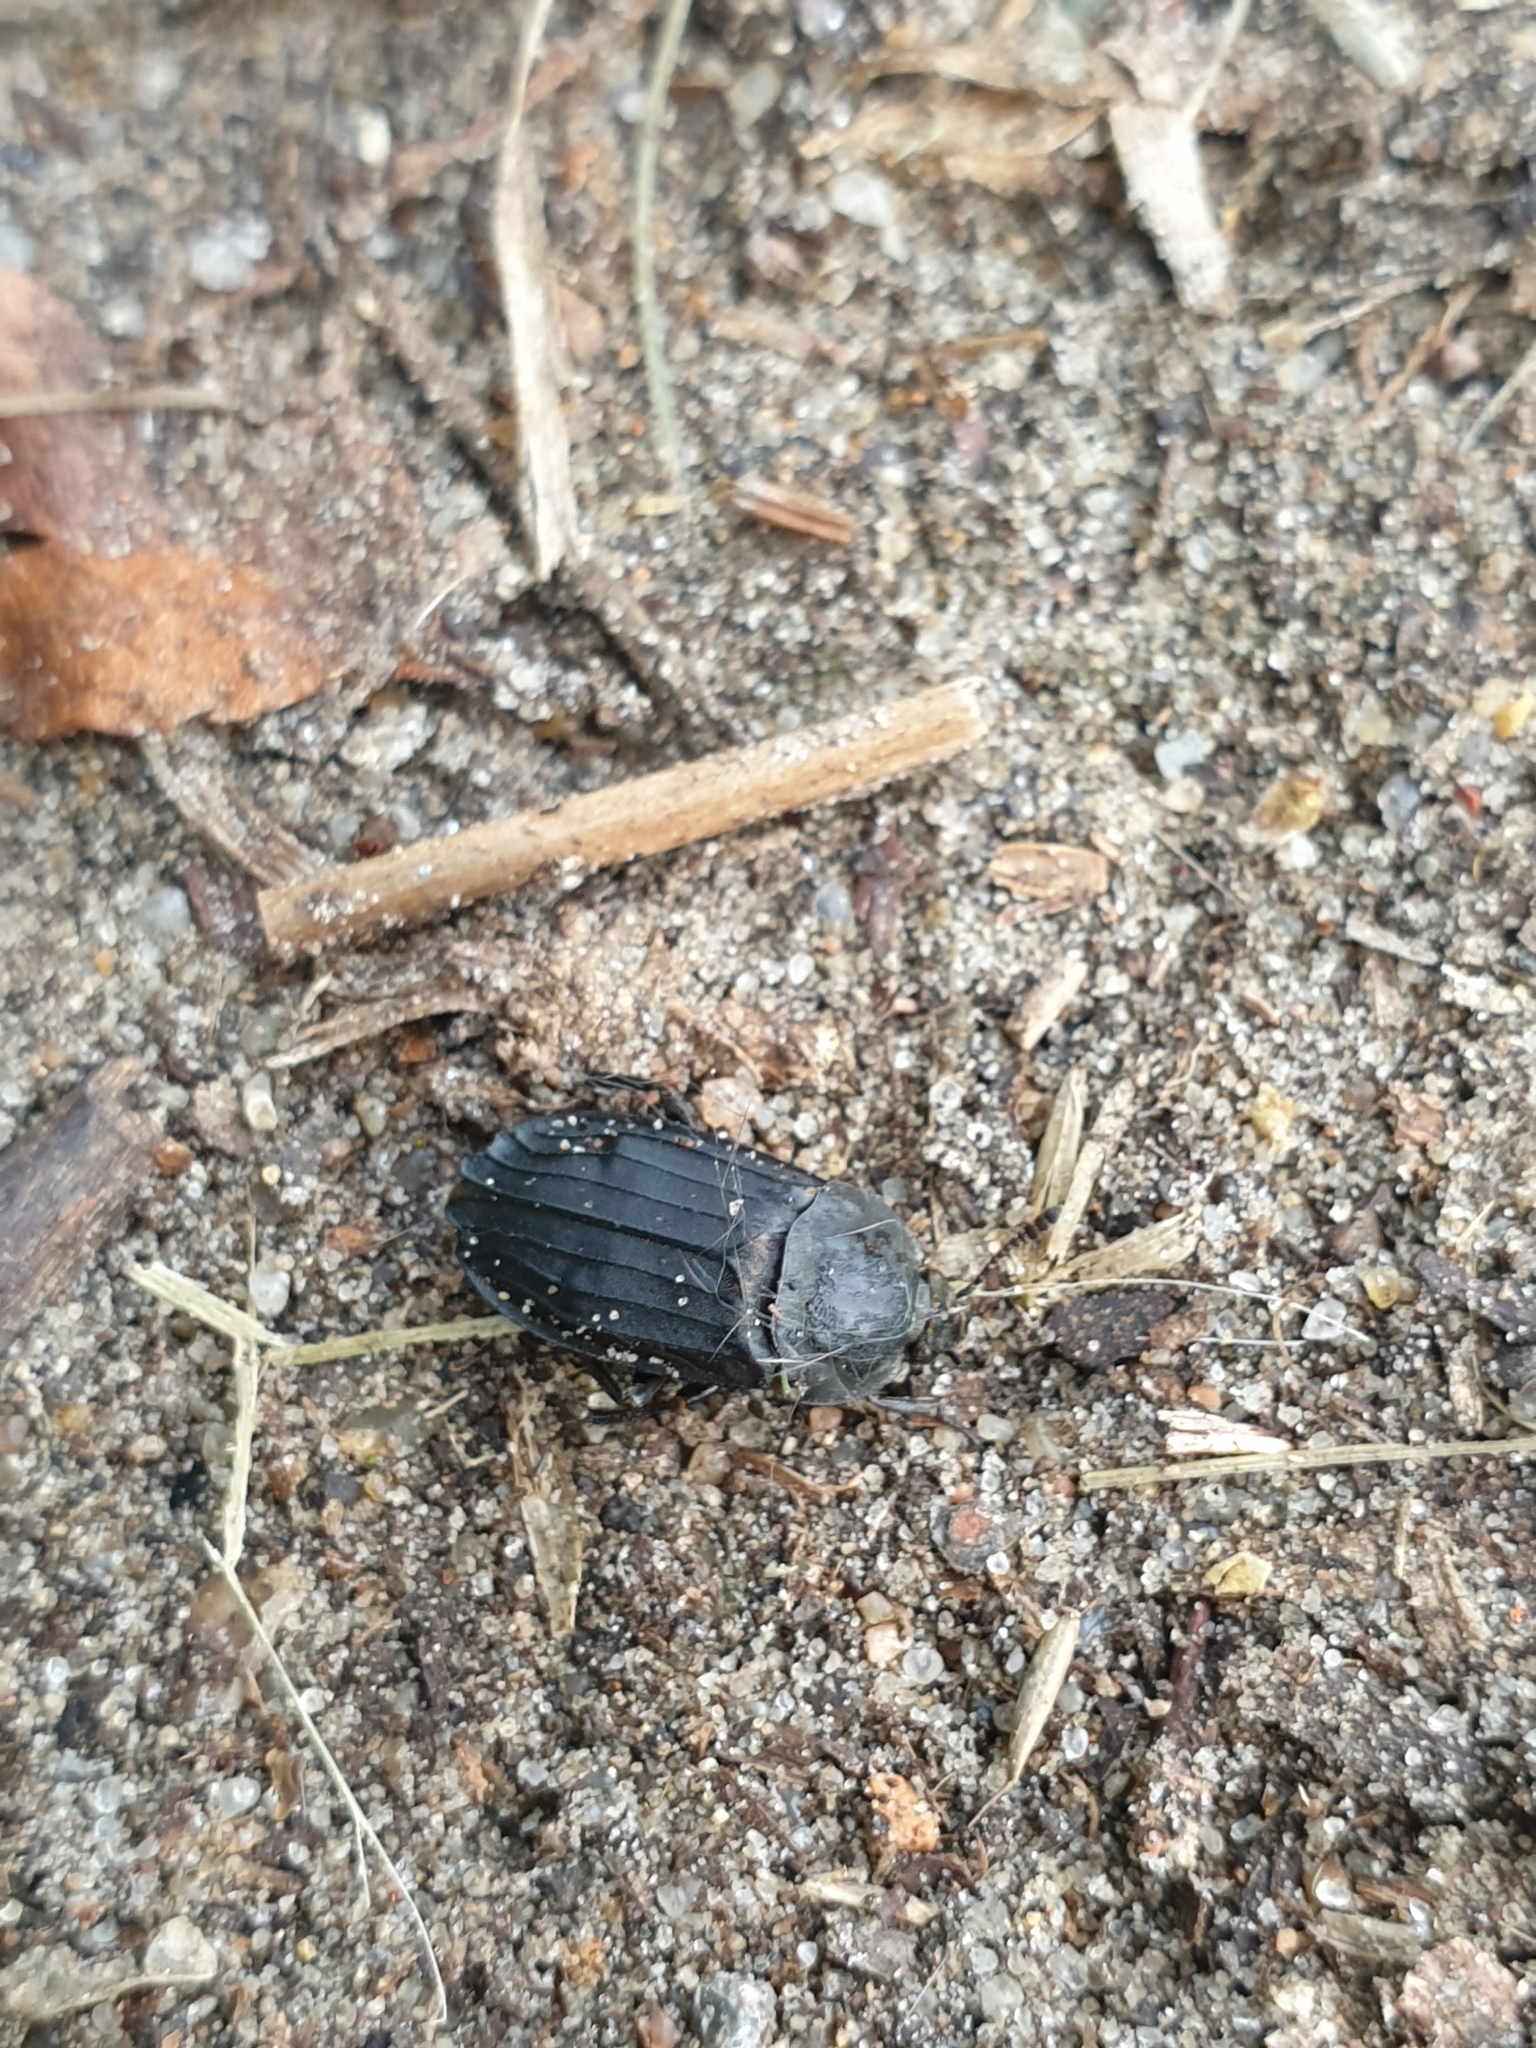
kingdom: Animalia
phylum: Arthropoda
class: Insecta
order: Coleoptera
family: Staphylinidae
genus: Thanatophilus
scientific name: Thanatophilus sinuatus
